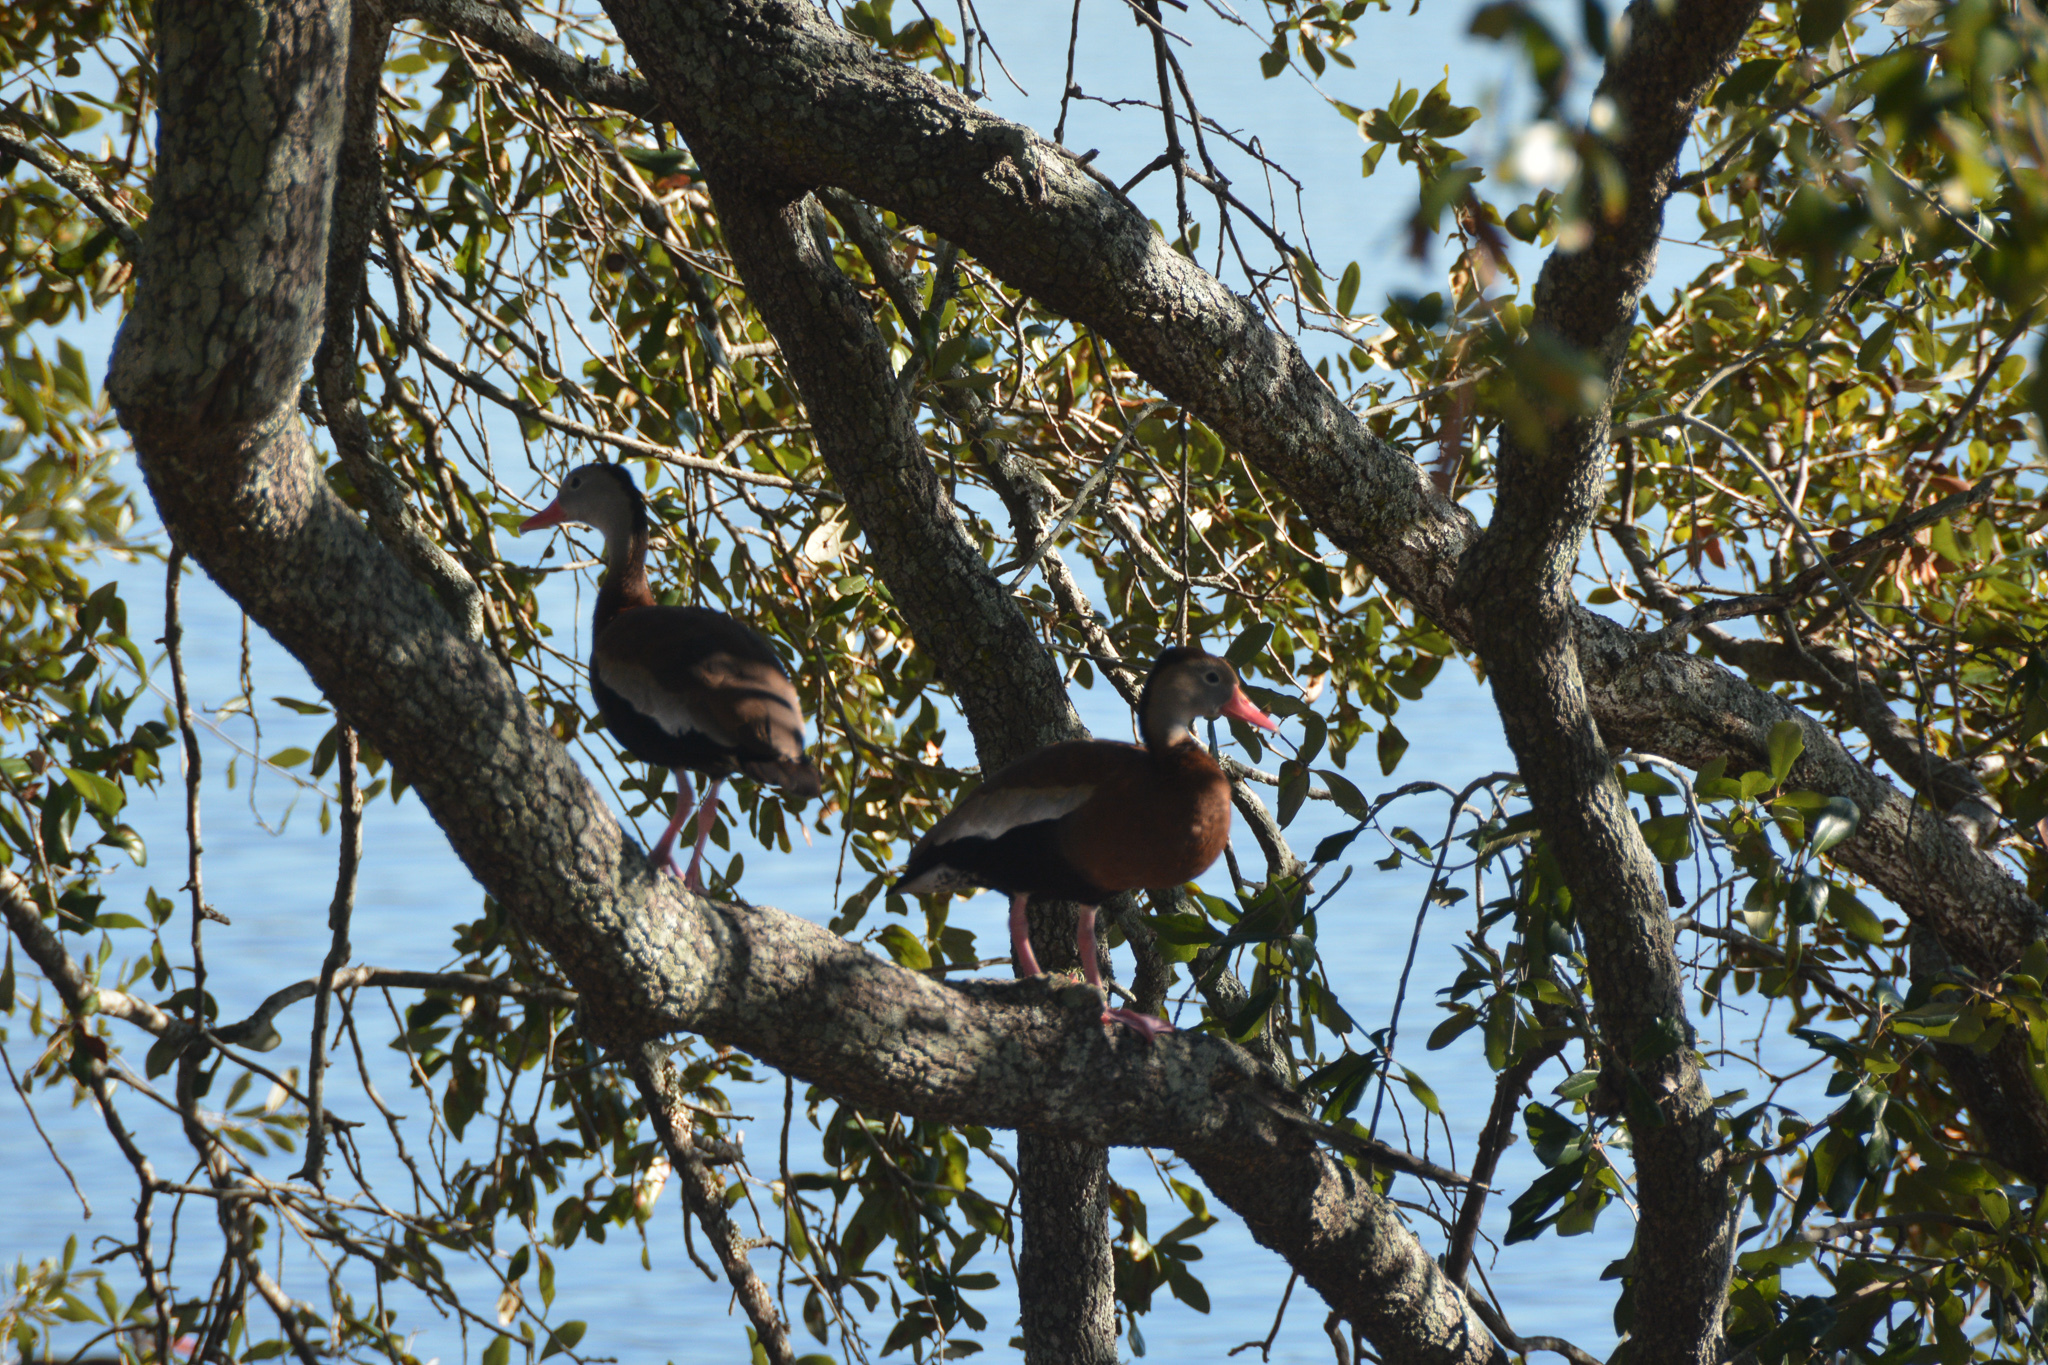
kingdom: Animalia
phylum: Chordata
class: Aves
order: Anseriformes
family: Anatidae
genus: Dendrocygna
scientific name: Dendrocygna autumnalis
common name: Black-bellied whistling duck
